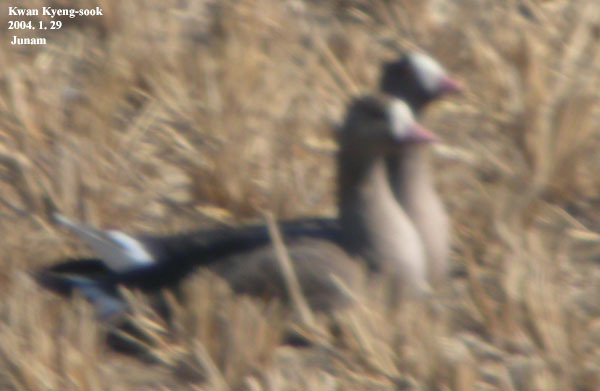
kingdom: Animalia
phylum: Chordata
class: Aves
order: Anseriformes
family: Anatidae
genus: Anser
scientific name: Anser erythropus
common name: Lesser white-fronted goose
